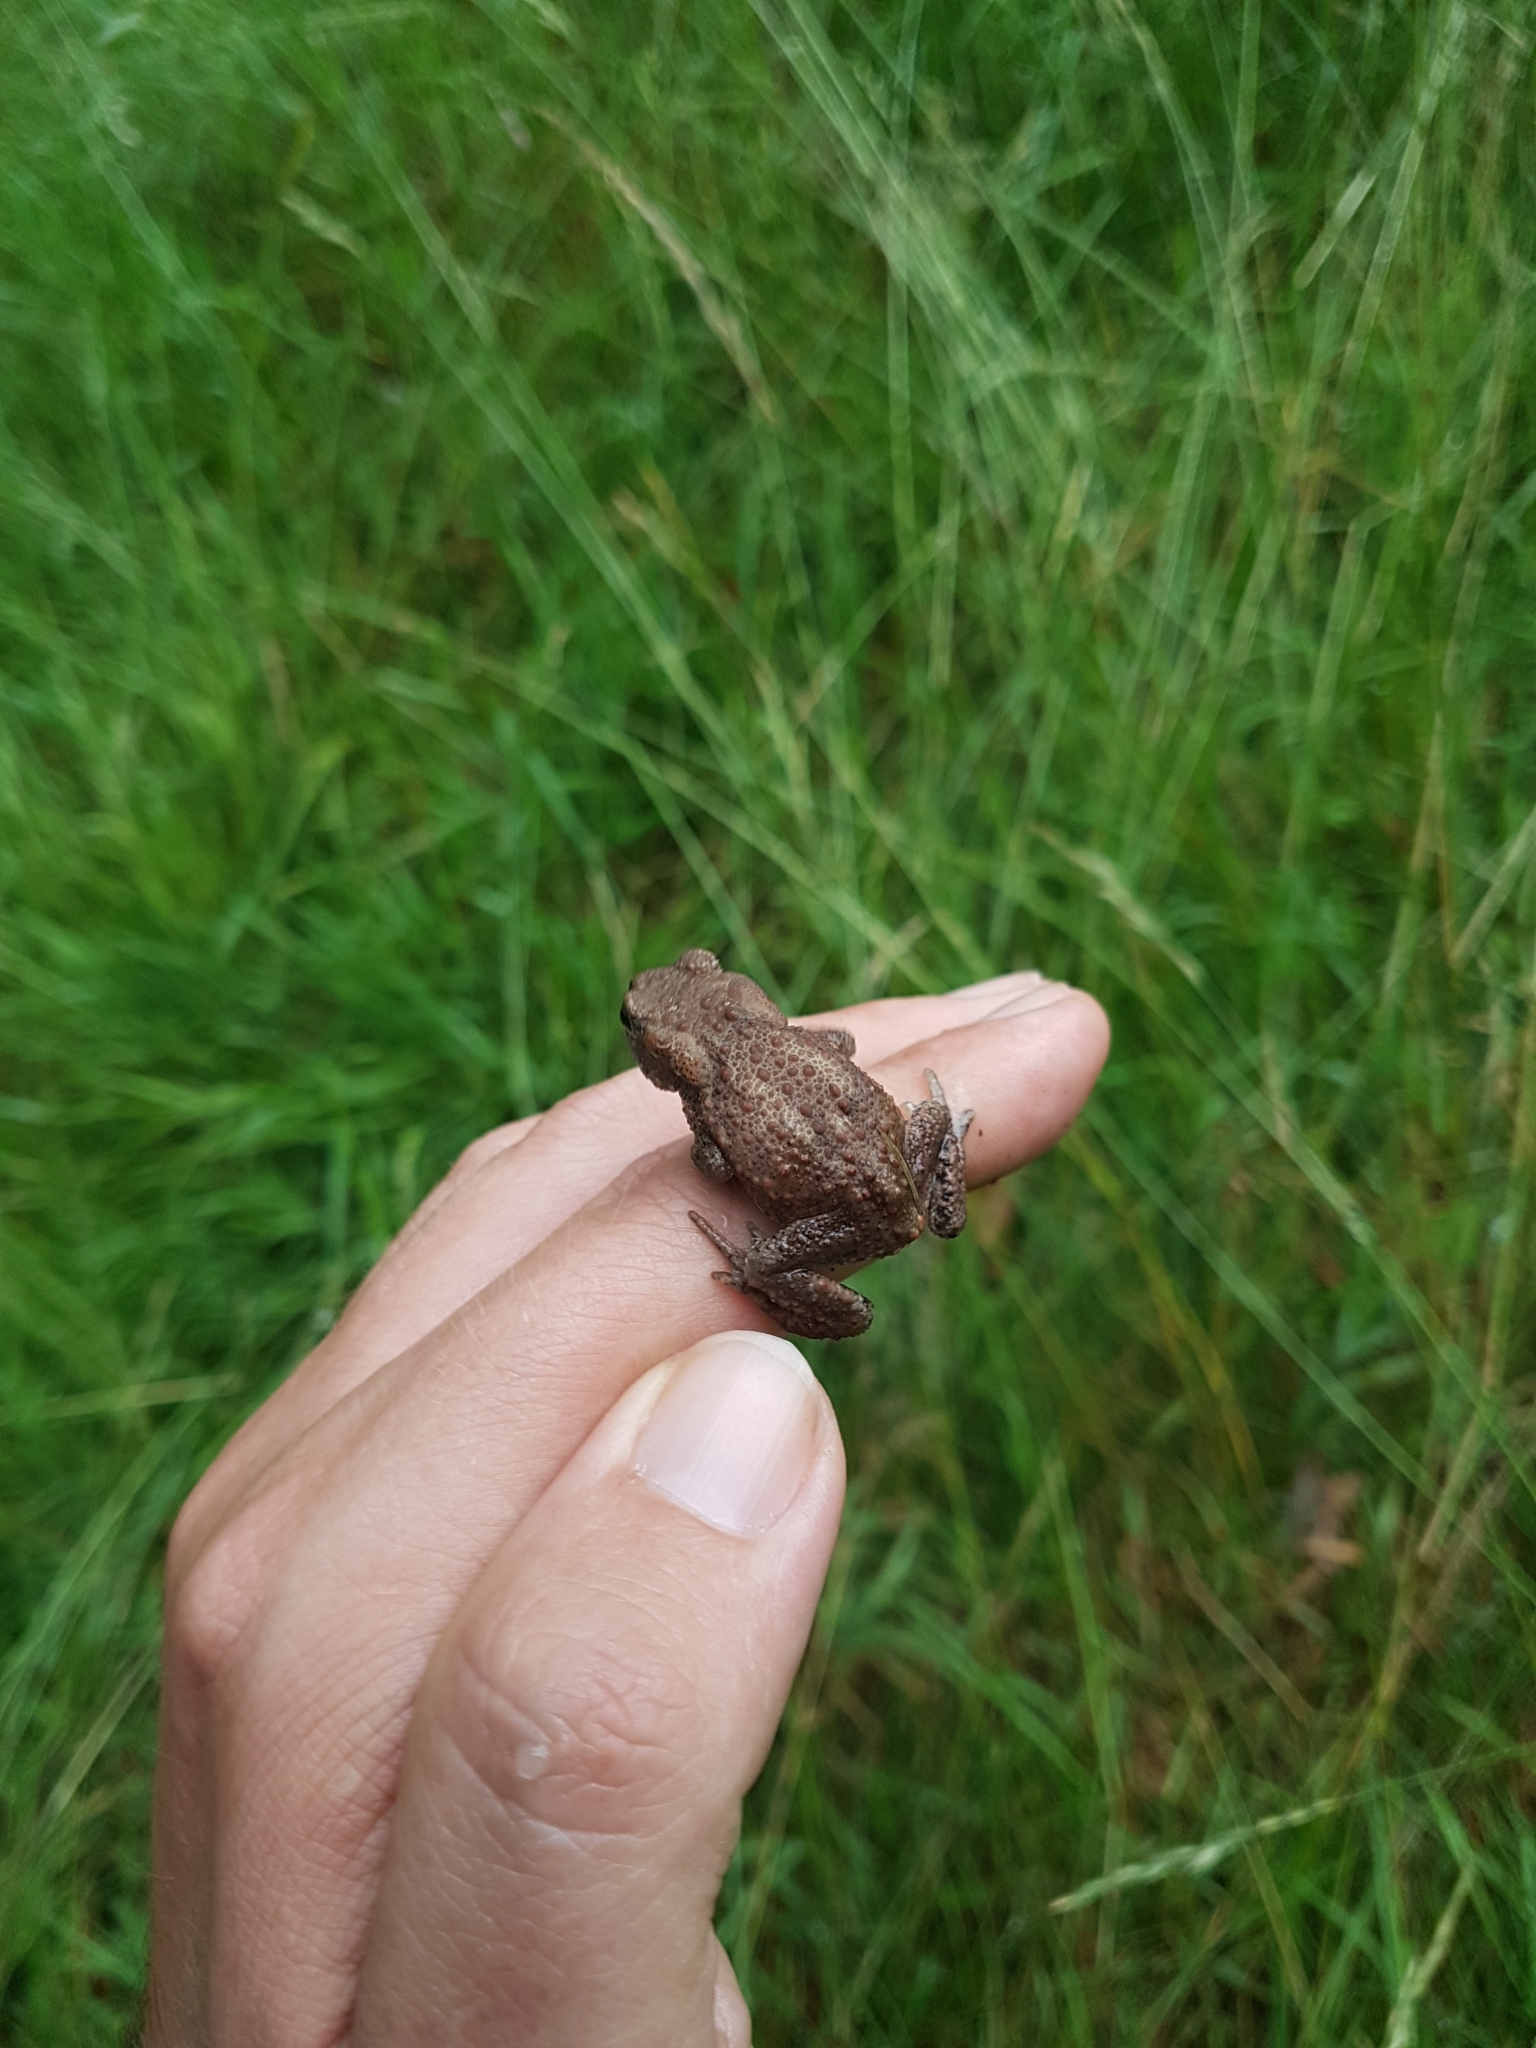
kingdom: Animalia
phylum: Chordata
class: Amphibia
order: Anura
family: Bufonidae
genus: Bufo
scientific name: Bufo bufo
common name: Common toad
